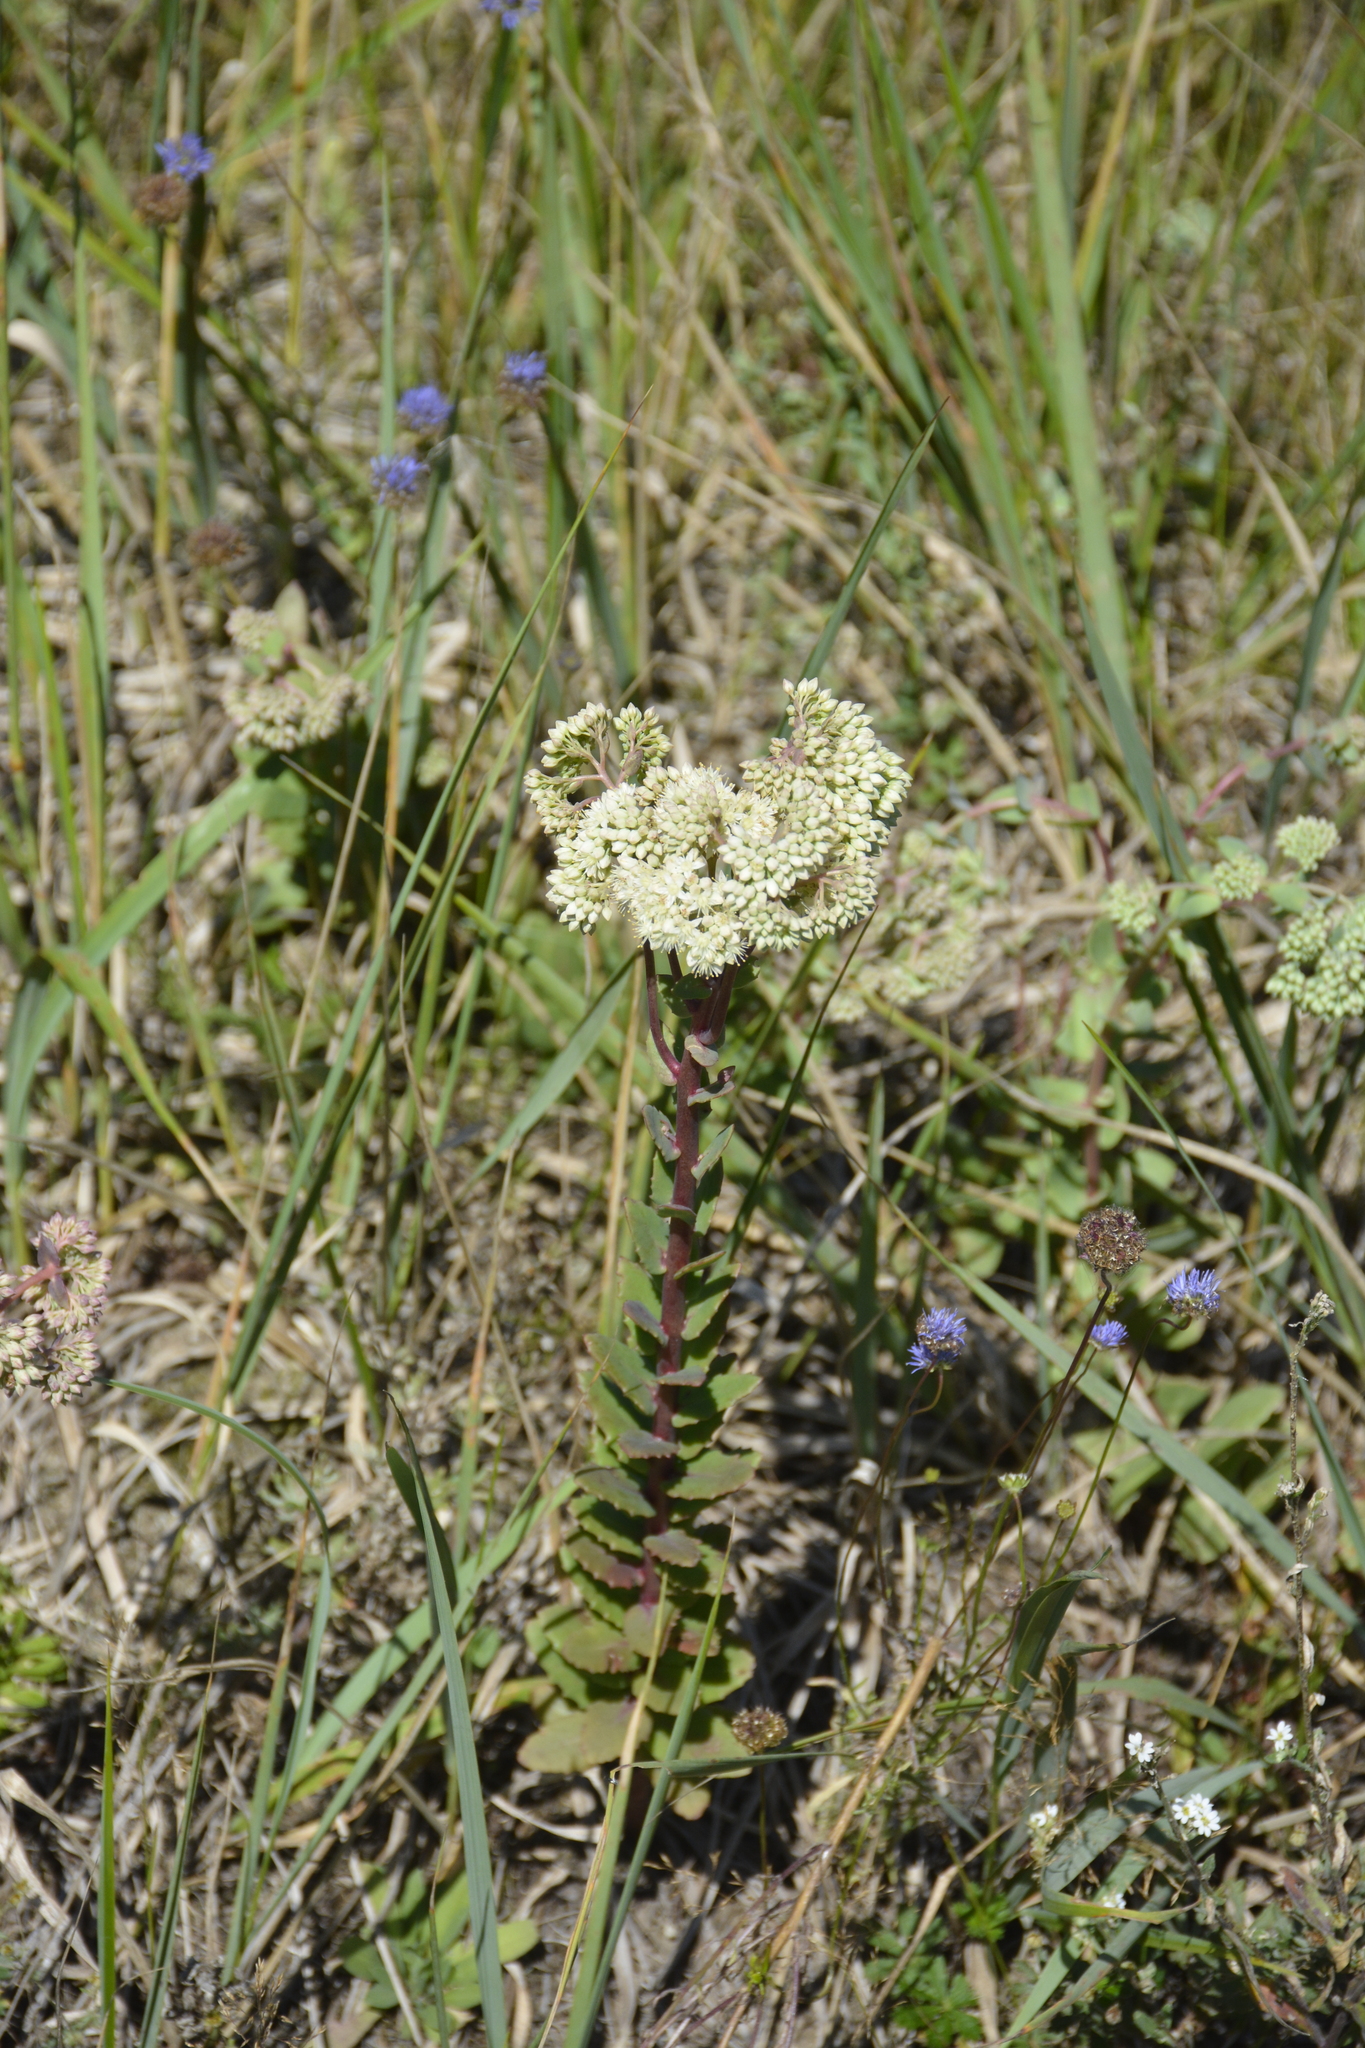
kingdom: Plantae
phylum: Tracheophyta
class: Magnoliopsida
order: Saxifragales
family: Crassulaceae
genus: Hylotelephium
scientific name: Hylotelephium maximum
